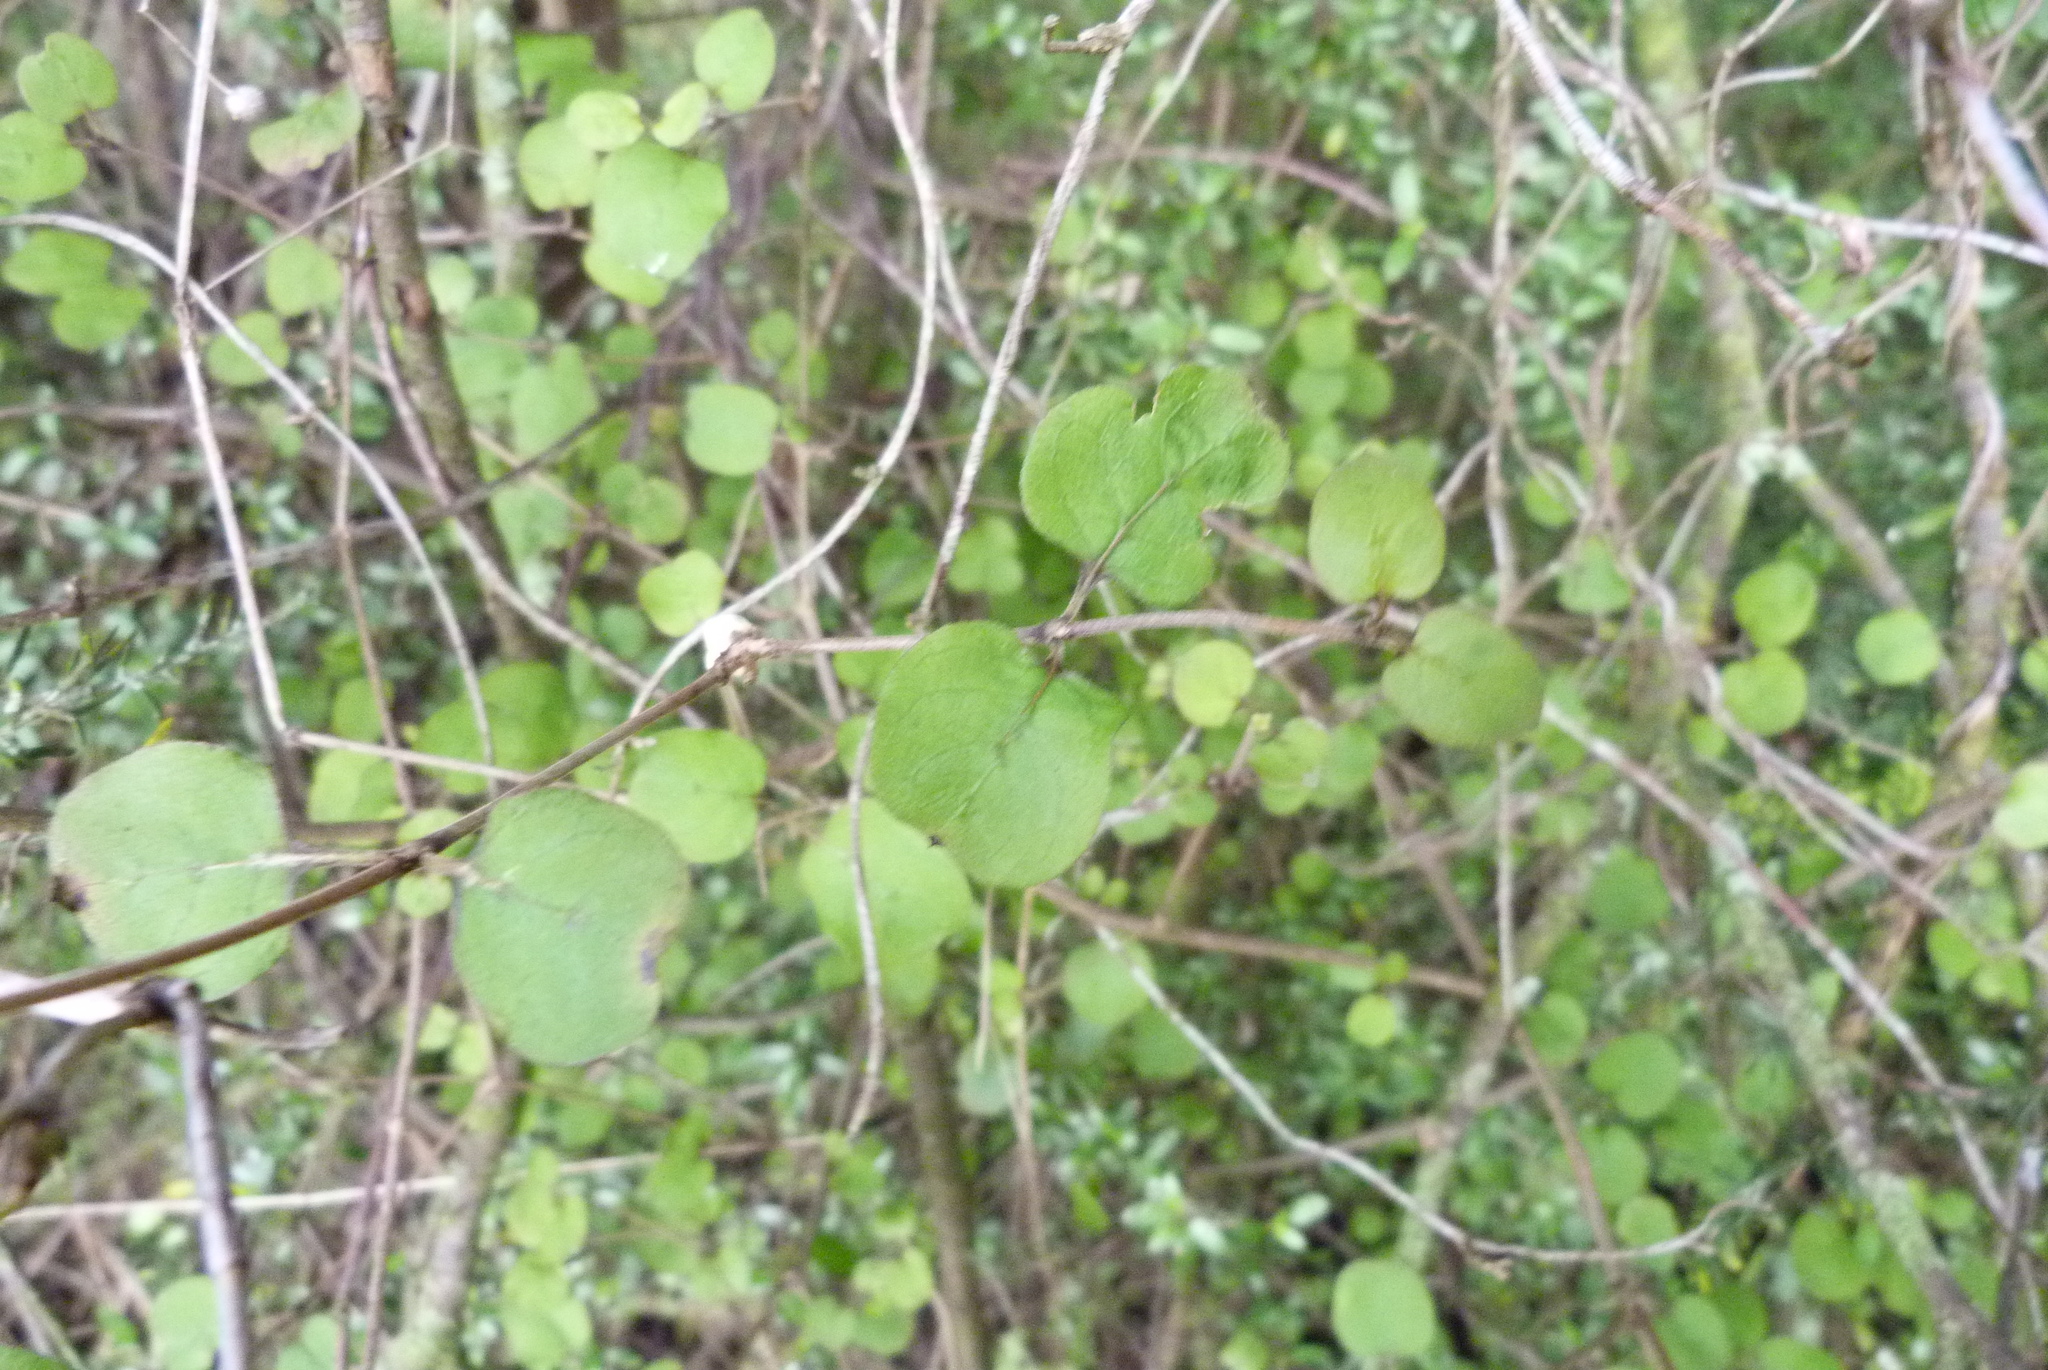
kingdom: Plantae
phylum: Tracheophyta
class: Magnoliopsida
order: Gentianales
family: Rubiaceae
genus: Coprosma
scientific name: Coprosma rotundifolia
